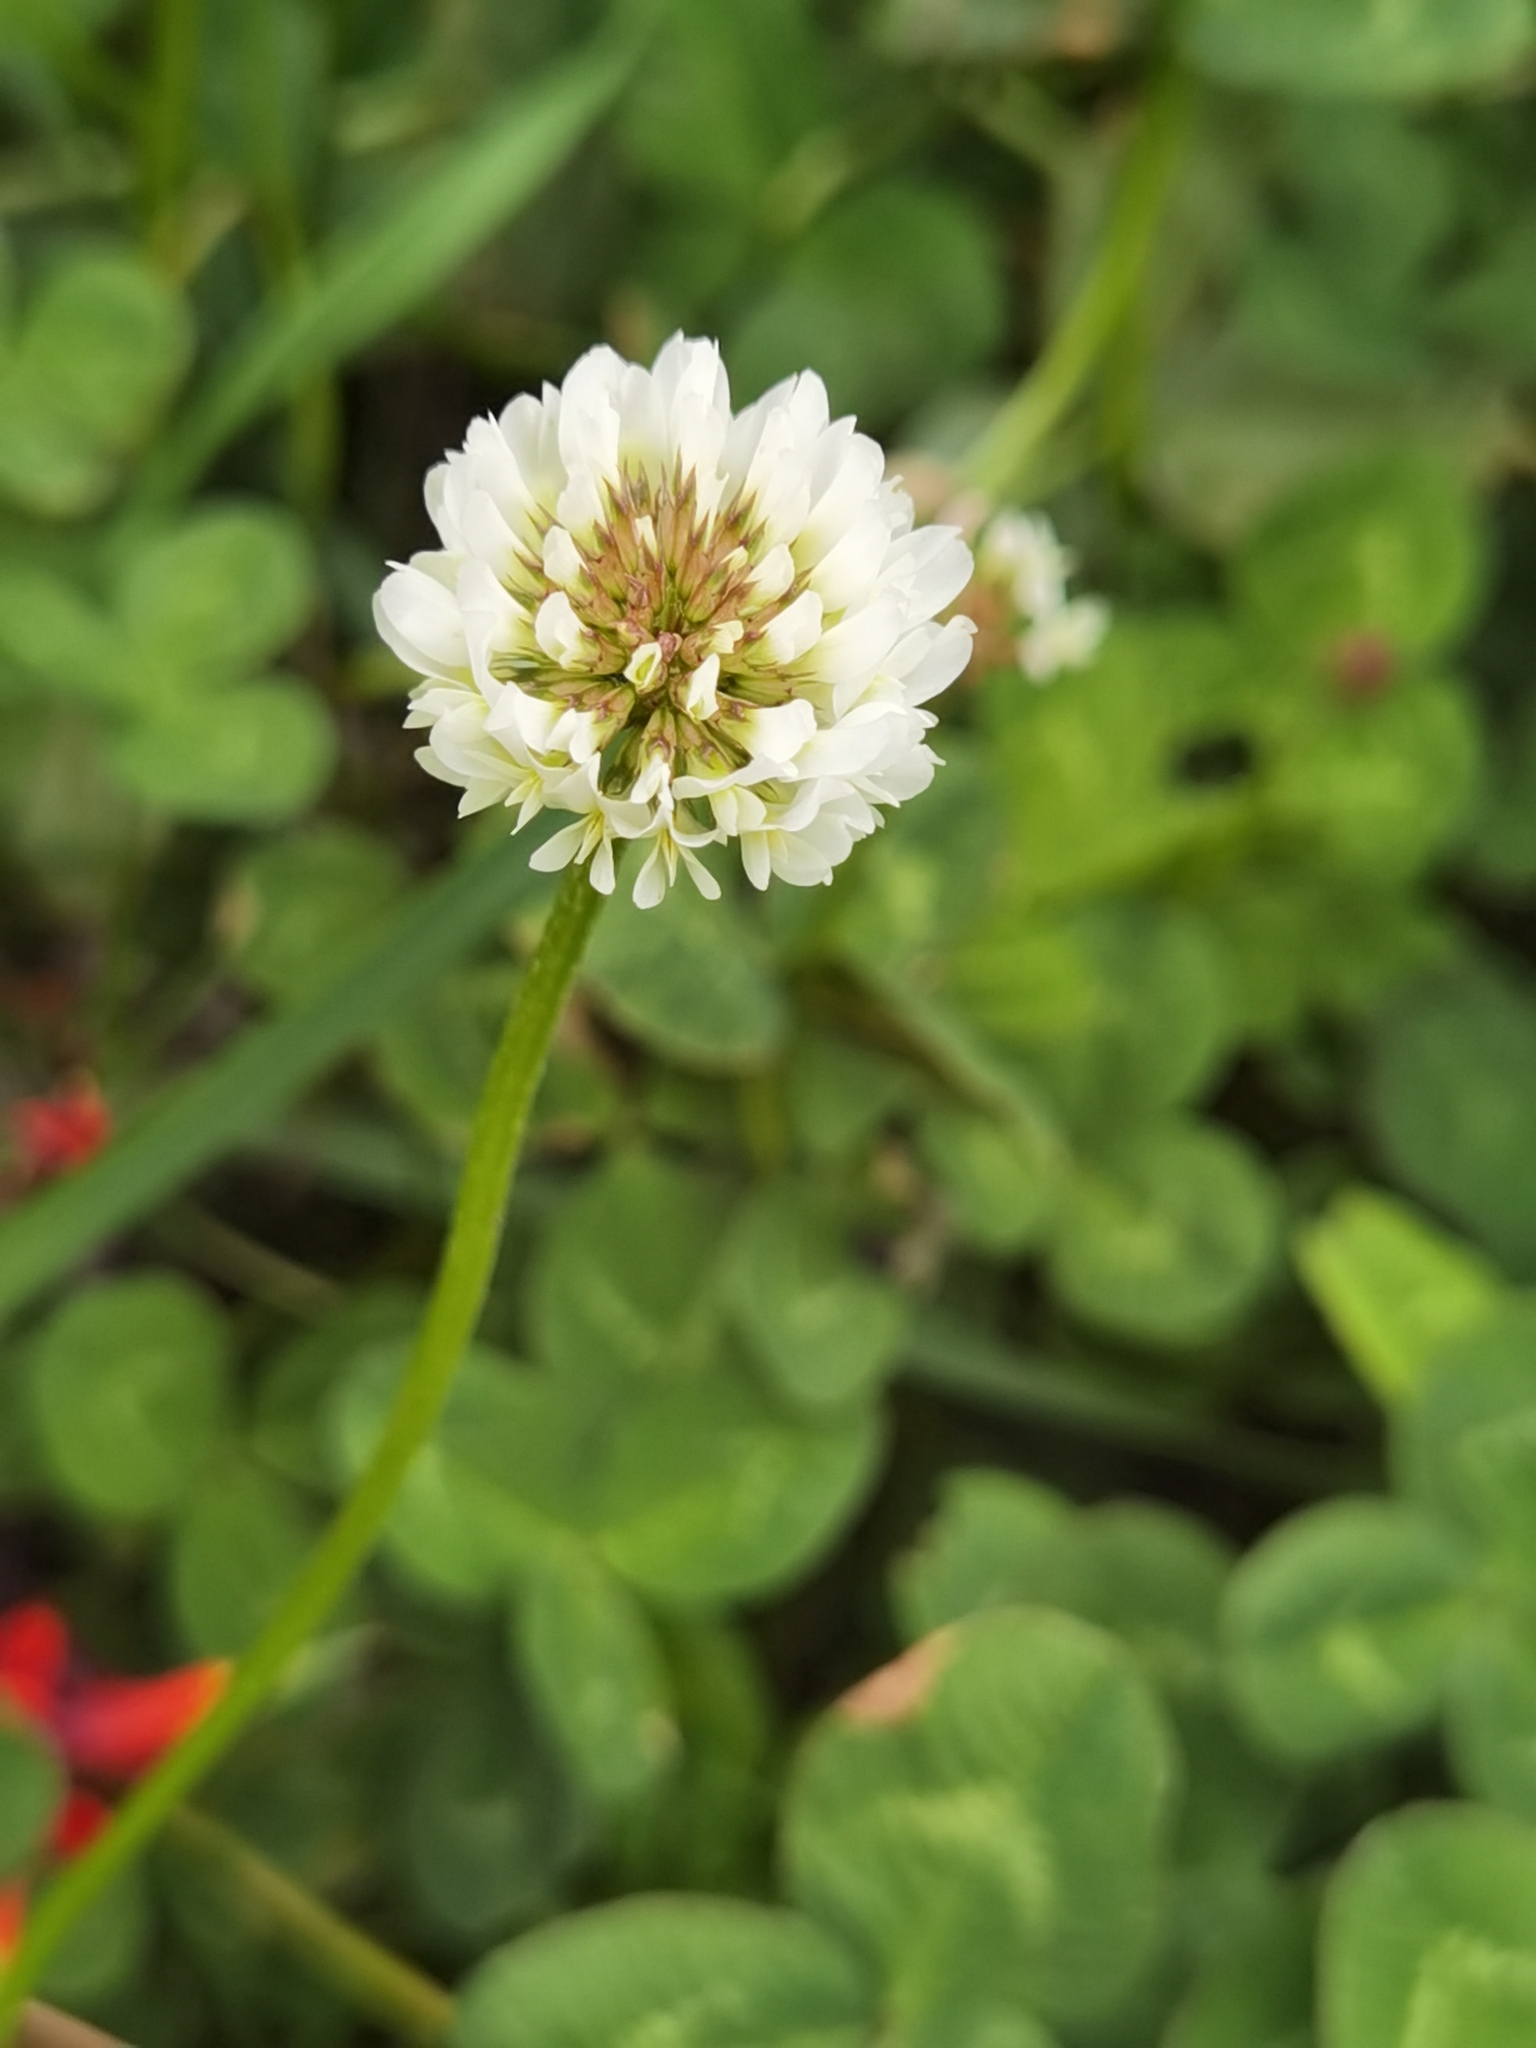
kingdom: Plantae
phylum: Tracheophyta
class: Magnoliopsida
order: Fabales
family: Fabaceae
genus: Trifolium
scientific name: Trifolium repens
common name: White clover
